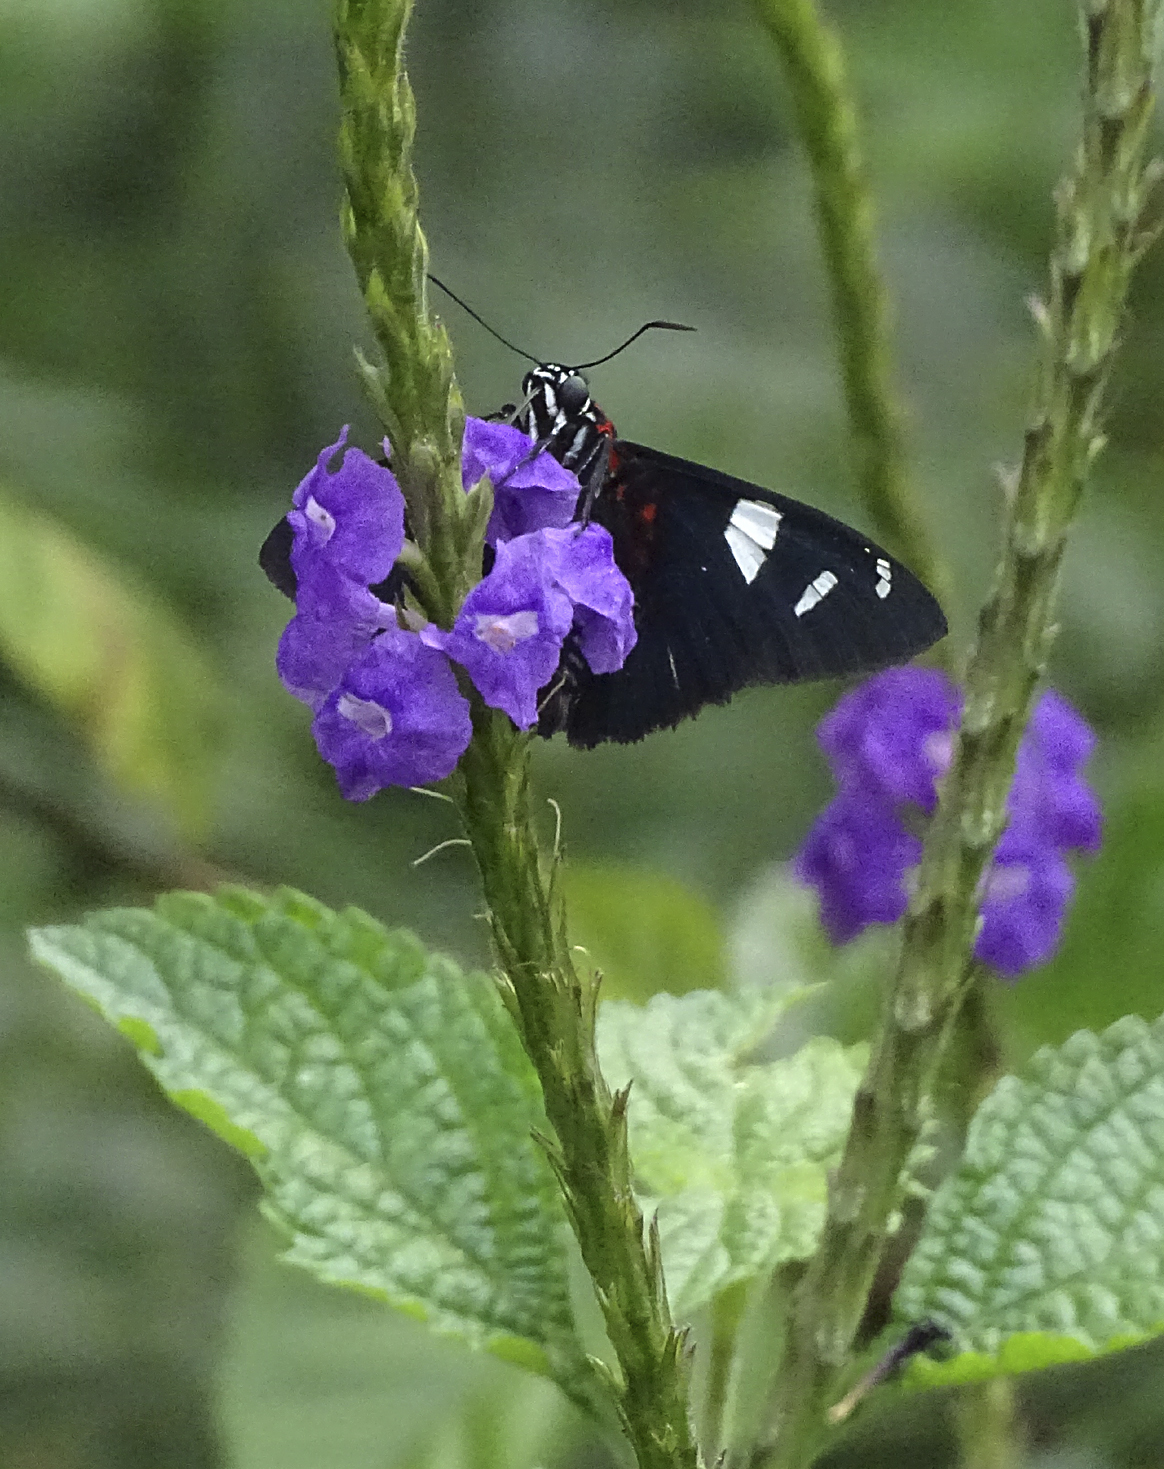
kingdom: Animalia
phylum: Arthropoda
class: Insecta
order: Lepidoptera
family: Hesperiidae
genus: Pyrrhopyge
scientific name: Pyrrhopyge Yanguna spatiosa
